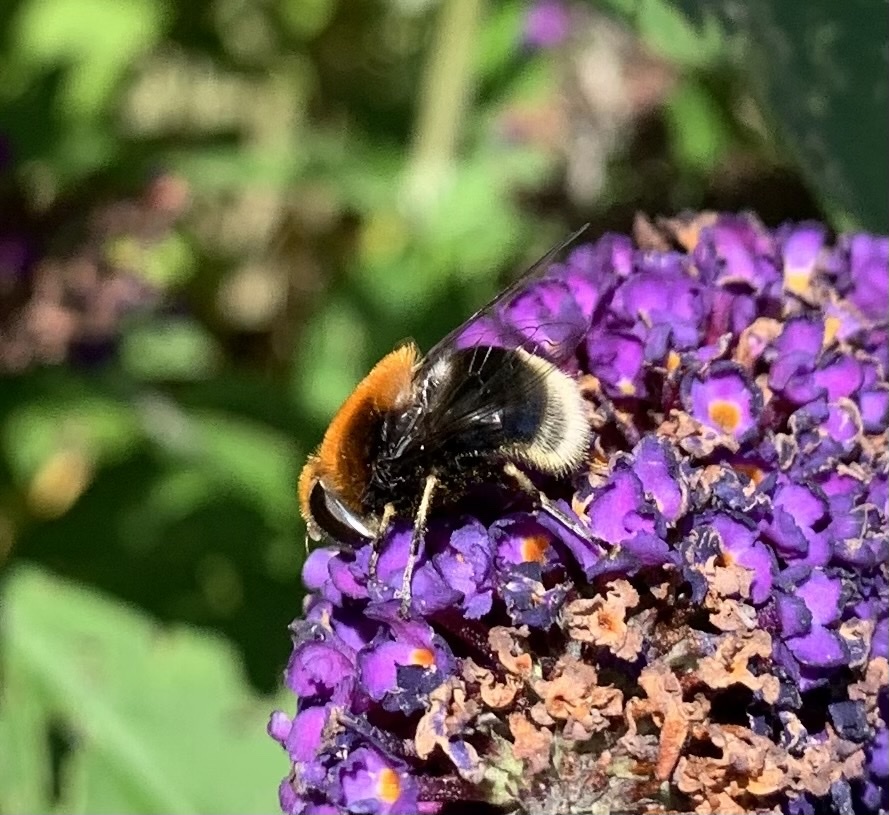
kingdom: Animalia
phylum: Arthropoda
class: Insecta
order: Diptera
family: Syrphidae
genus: Eristalis
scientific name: Eristalis intricaria
